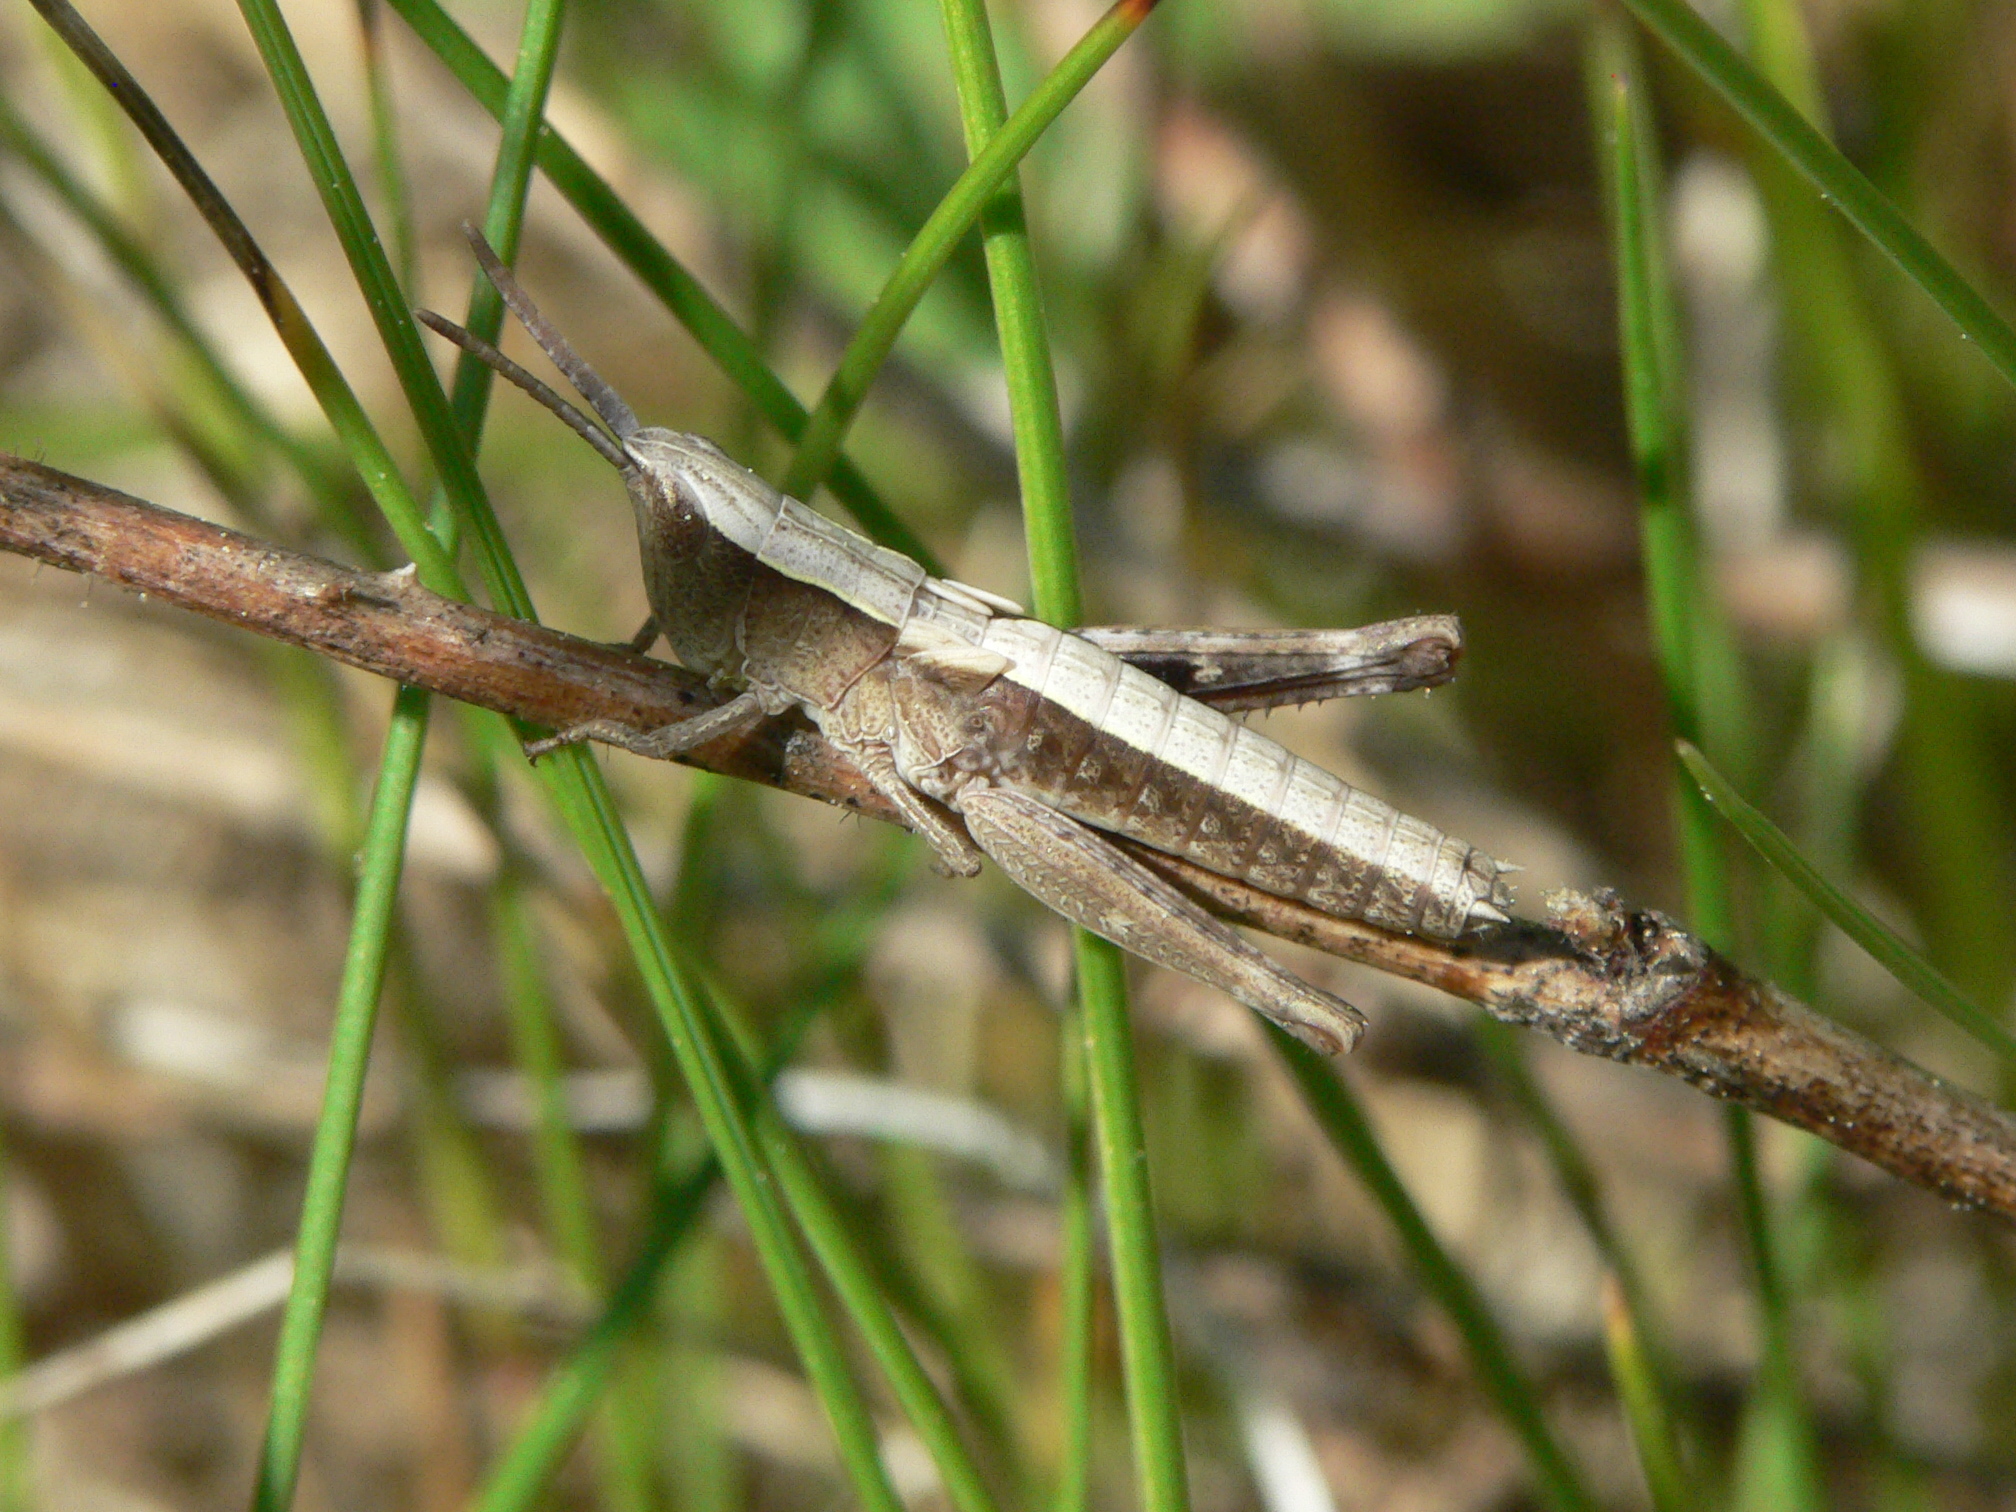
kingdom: Animalia
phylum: Arthropoda
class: Insecta
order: Orthoptera
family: Acrididae
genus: Chloealtis
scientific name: Chloealtis conspersa
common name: Sprinkled broad-winged grasshopper
